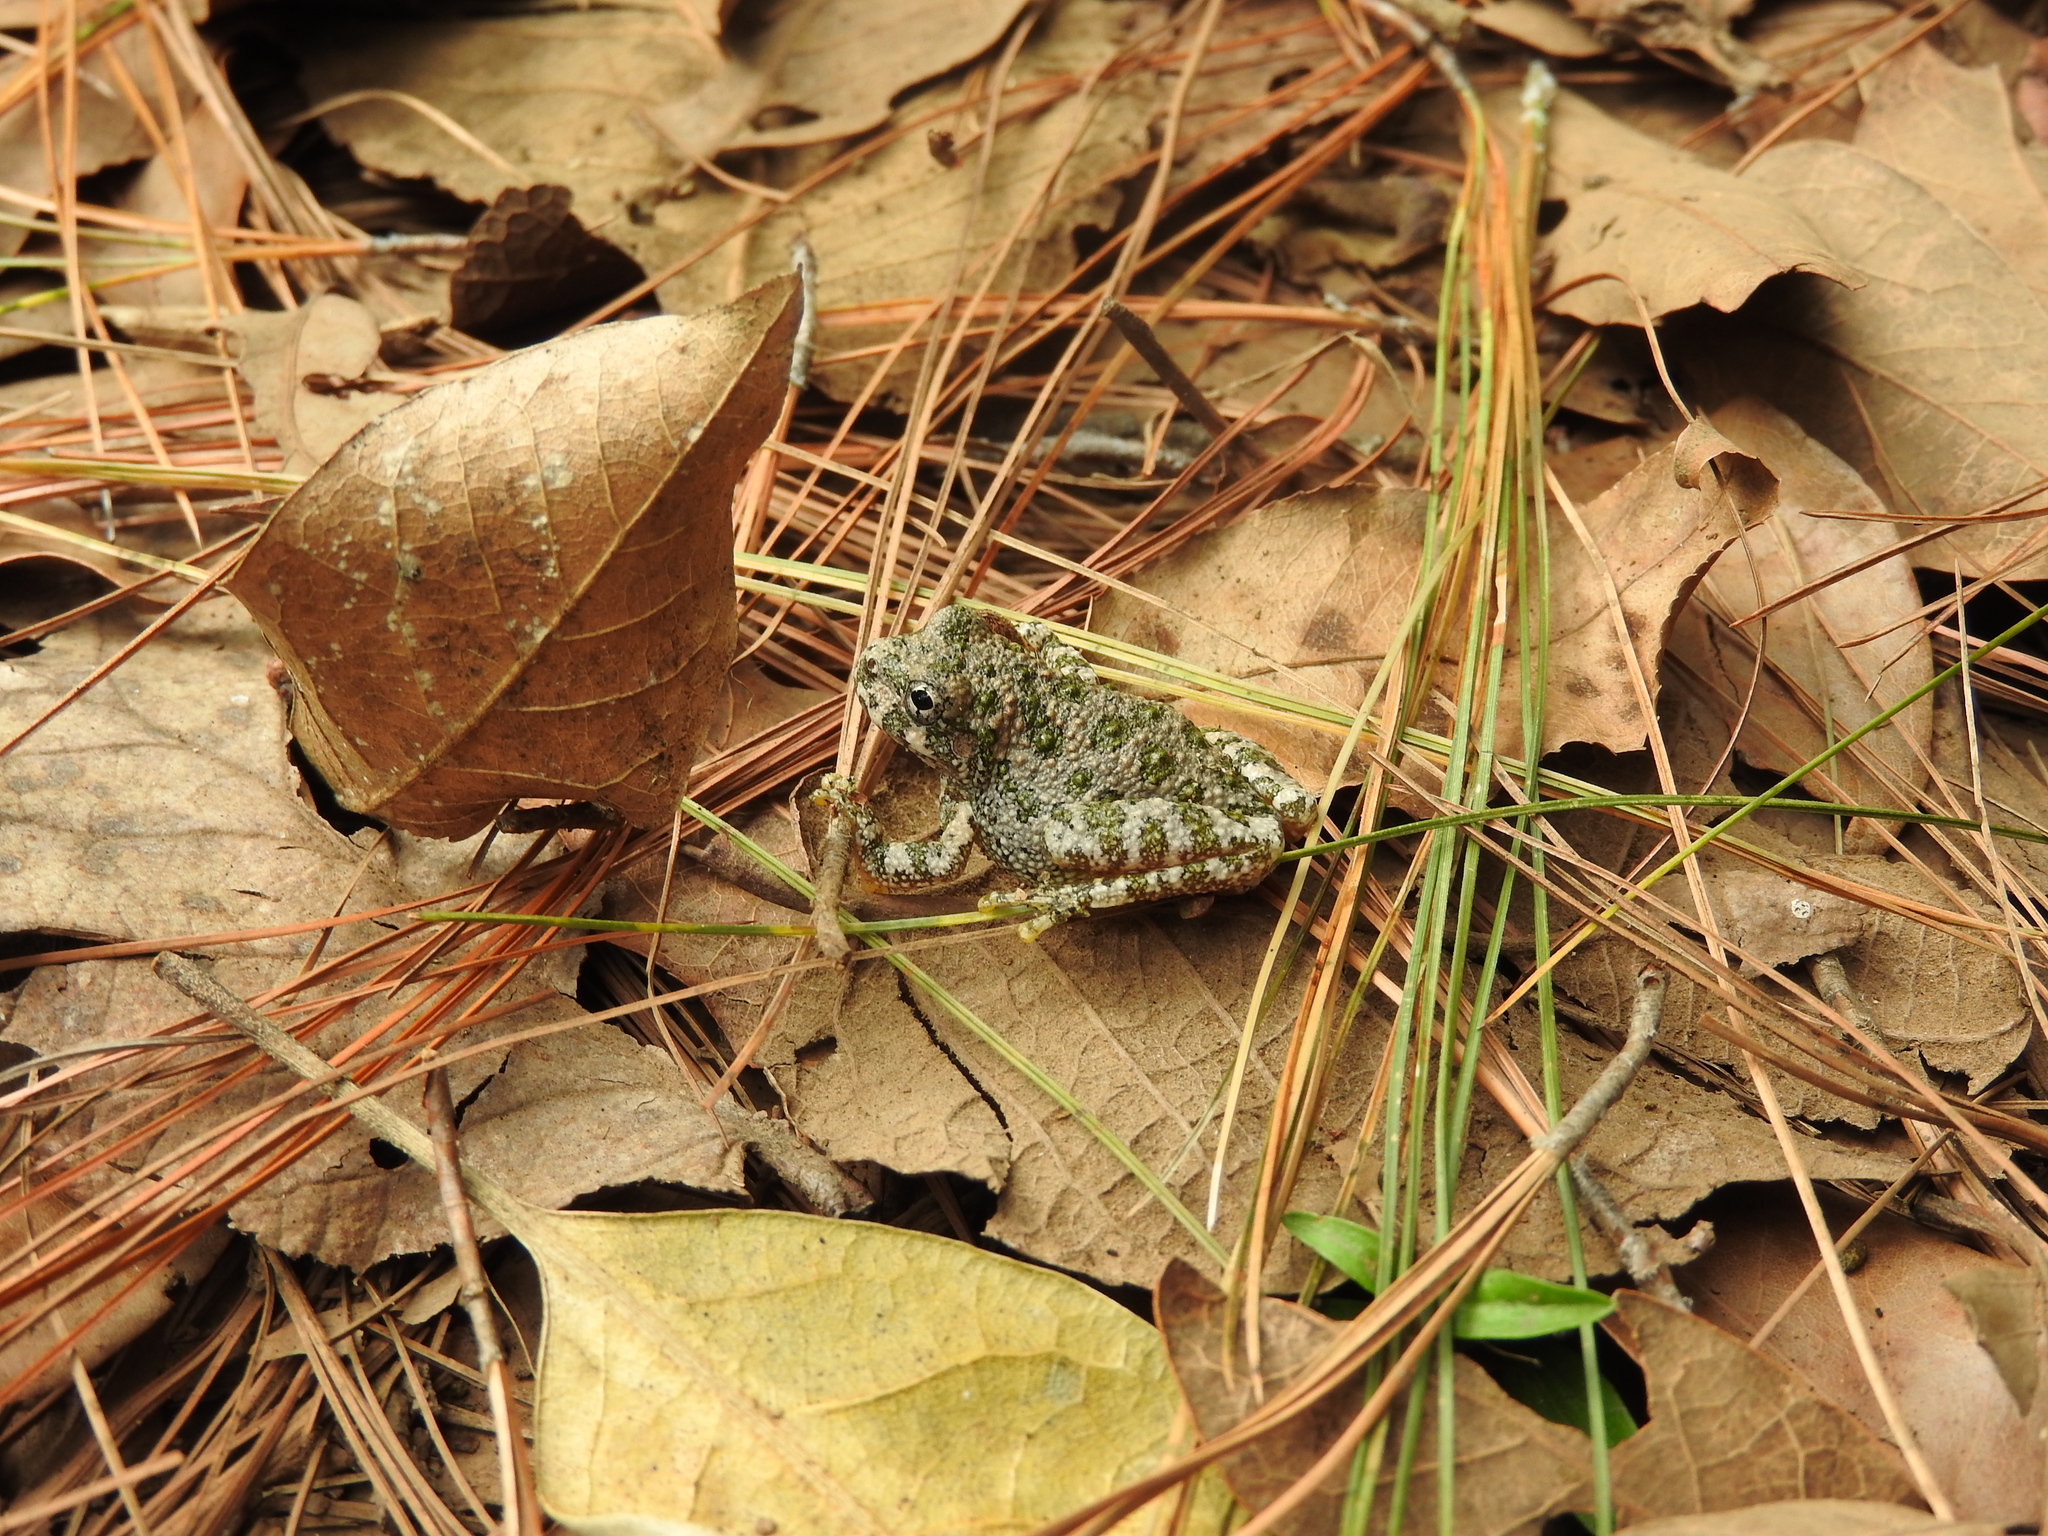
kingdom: Animalia
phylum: Chordata
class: Amphibia
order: Anura
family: Hylidae
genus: Dryophytes
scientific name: Dryophytes arenicolor
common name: Canyon treefrog
